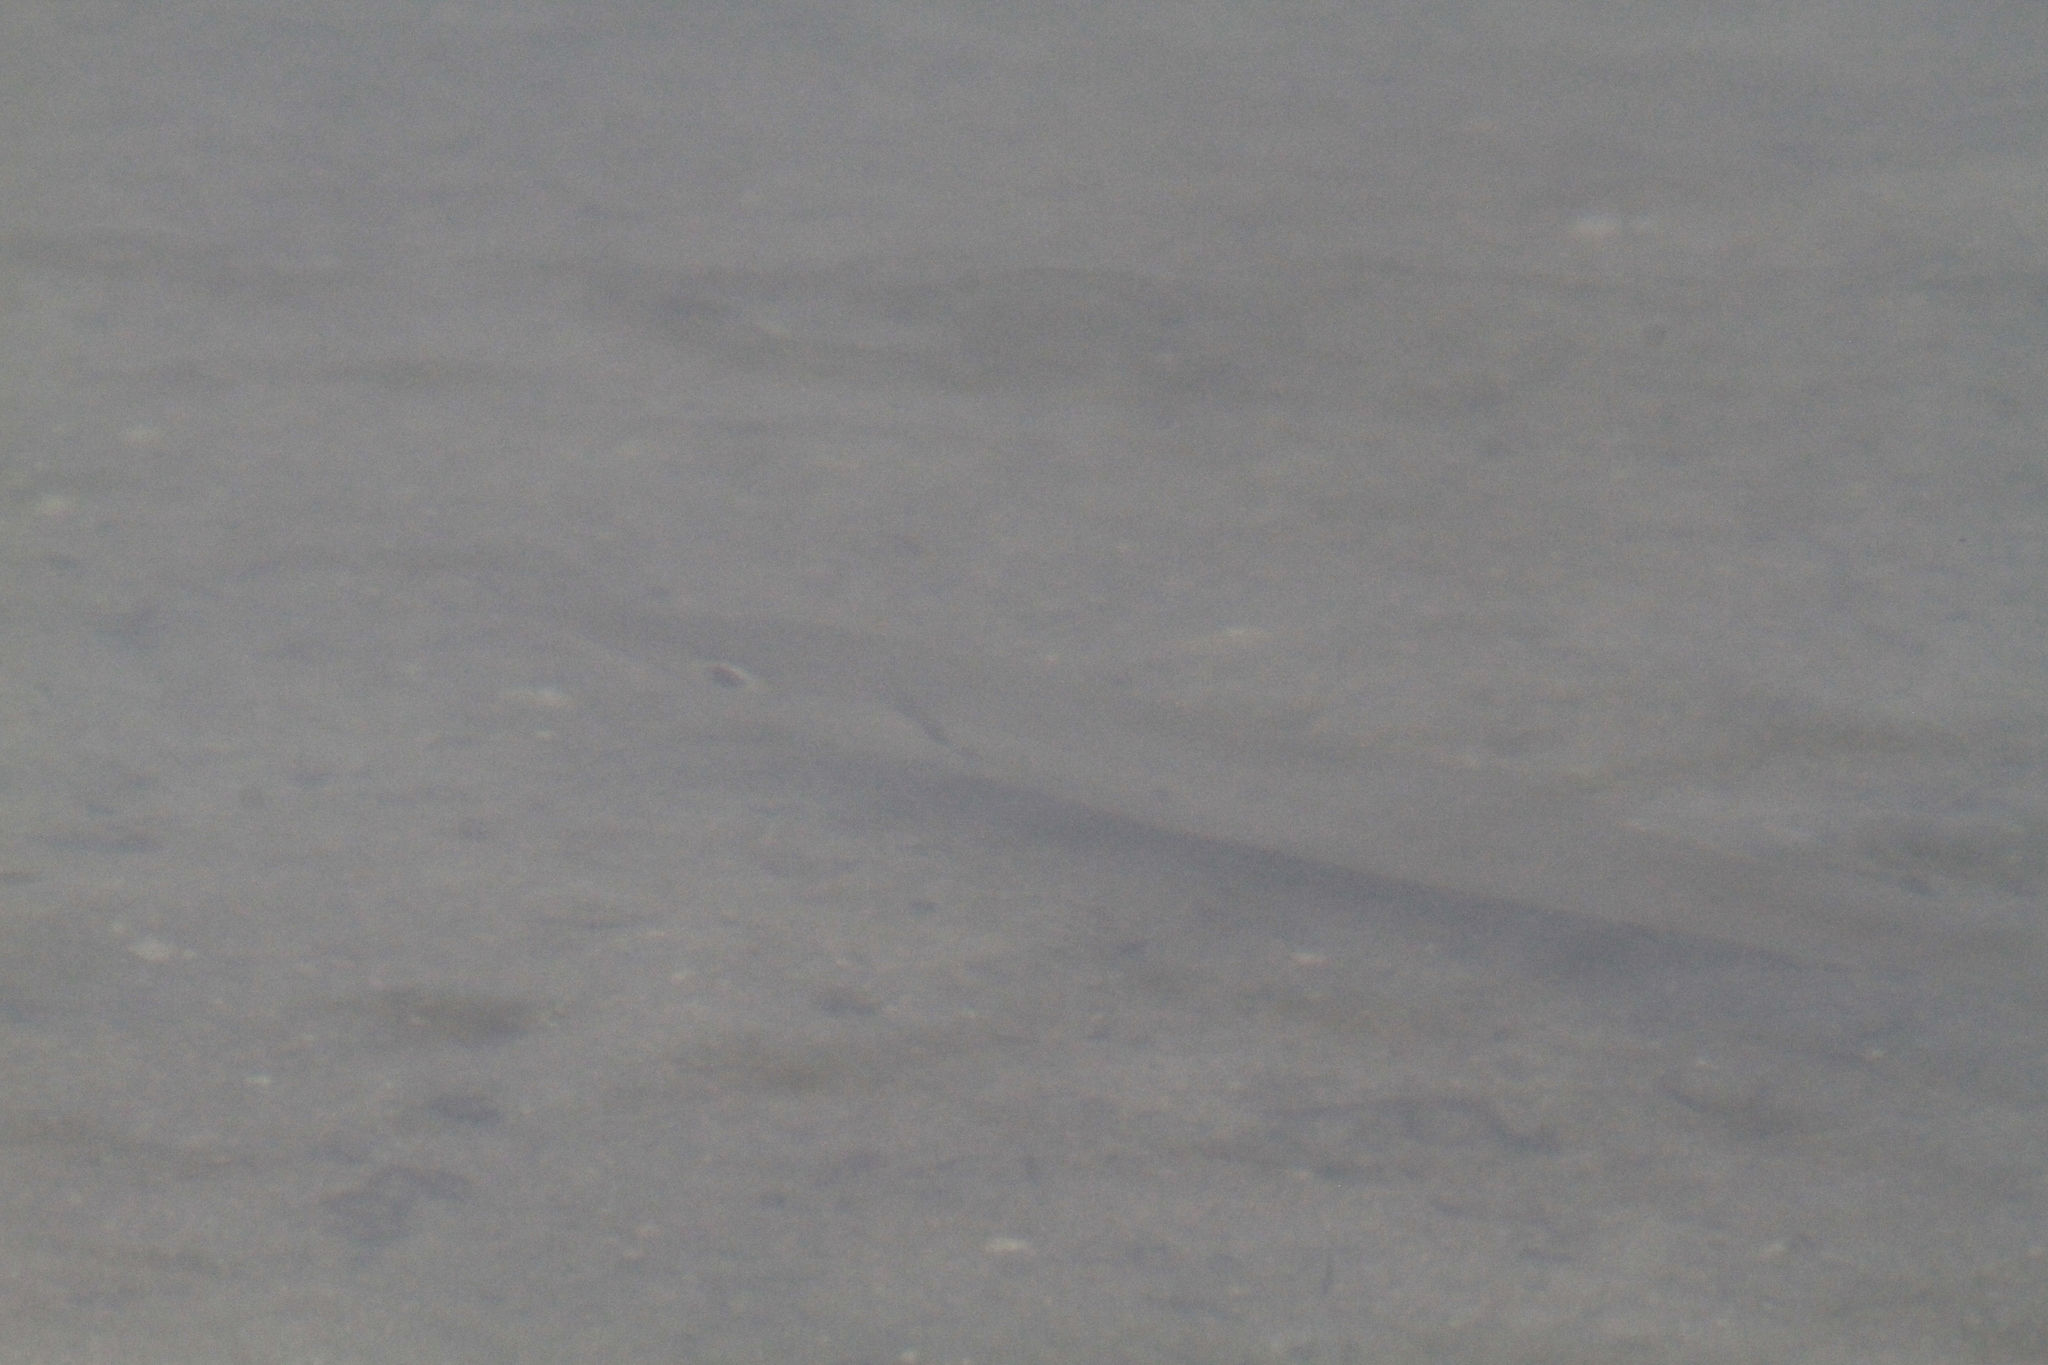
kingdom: Animalia
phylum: Chordata
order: Perciformes
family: Sphyraenidae
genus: Sphyraena
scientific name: Sphyraena barracuda
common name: Great barracuda
